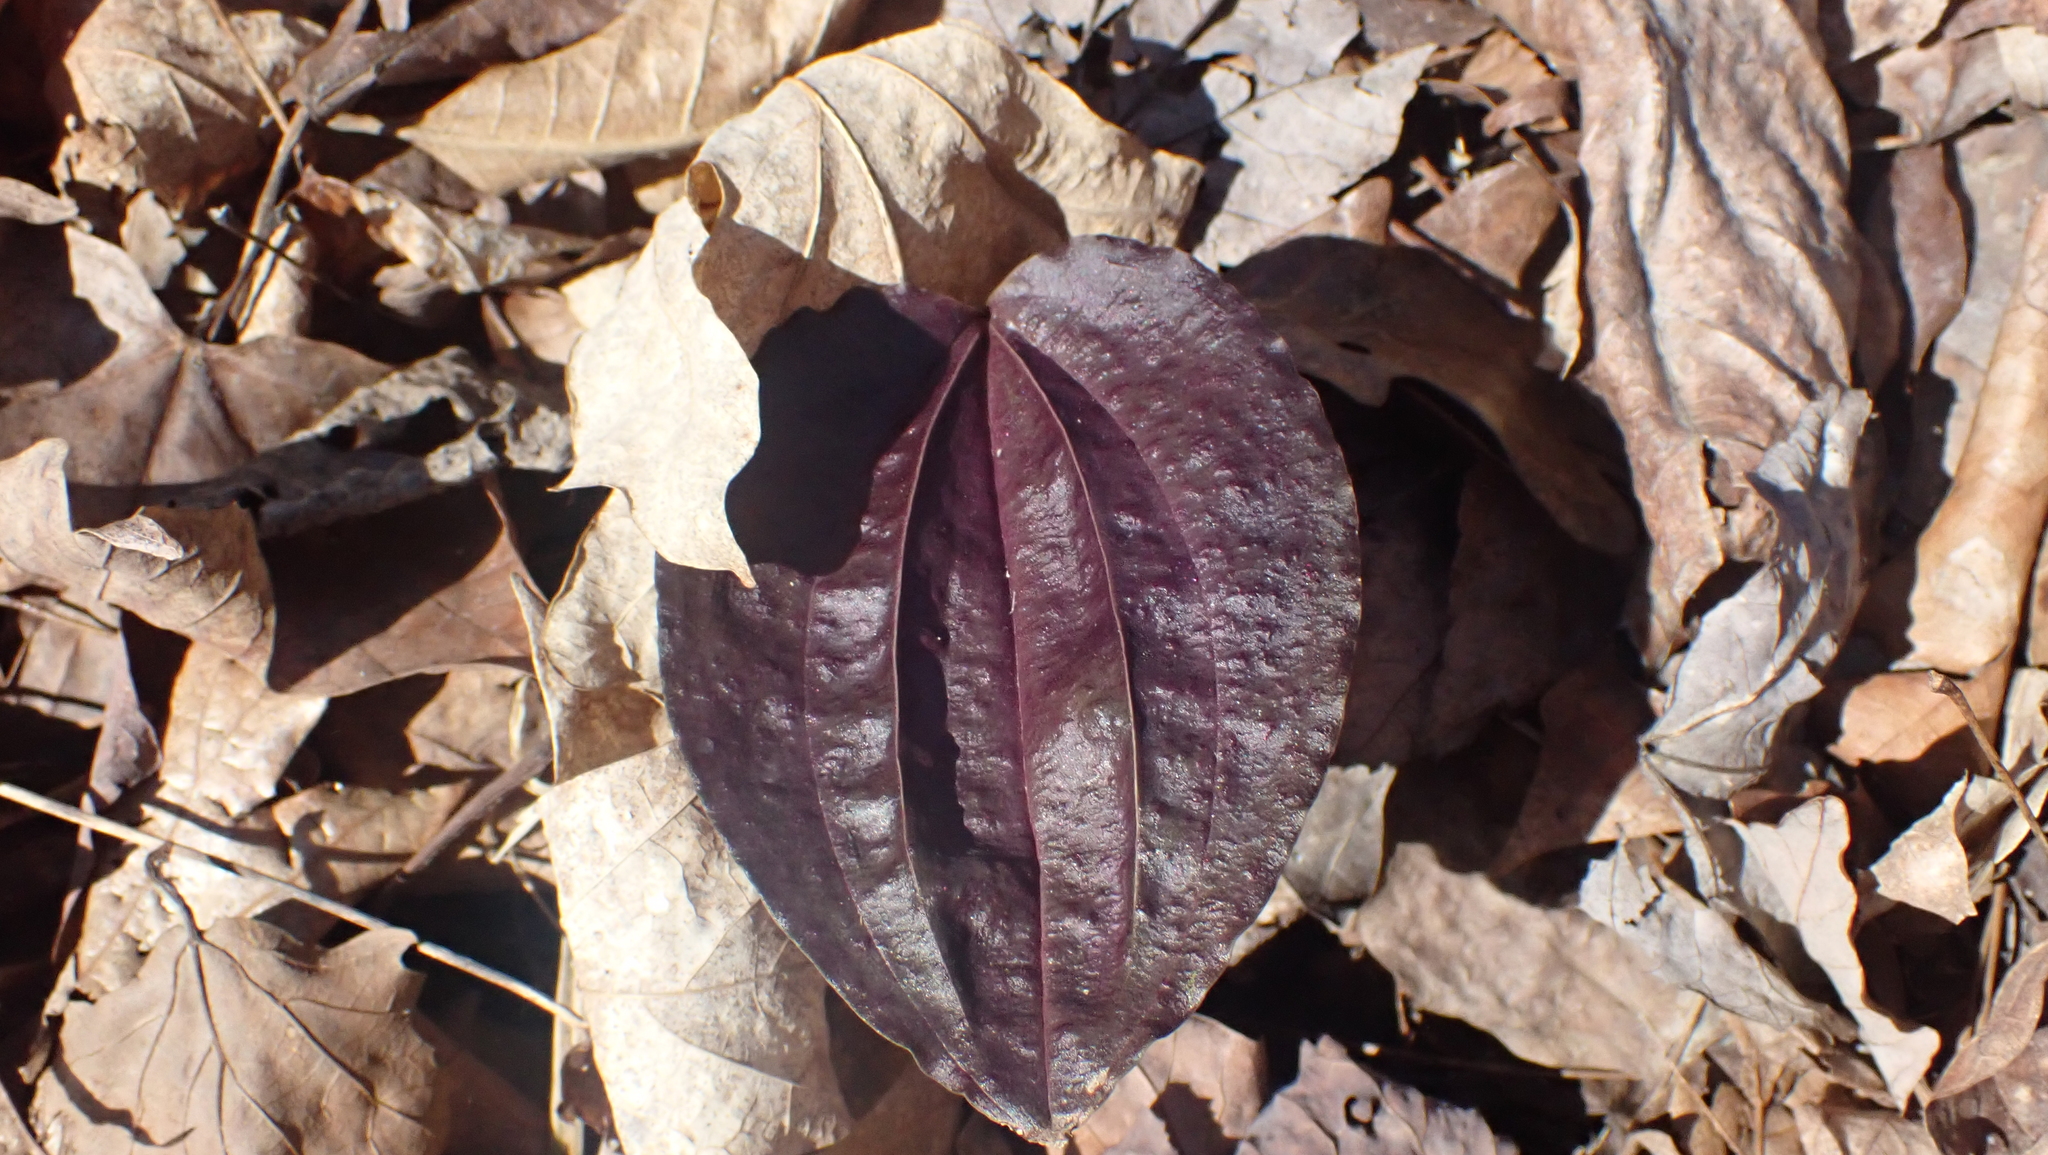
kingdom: Plantae
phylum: Tracheophyta
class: Liliopsida
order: Asparagales
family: Orchidaceae
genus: Tipularia
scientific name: Tipularia discolor
